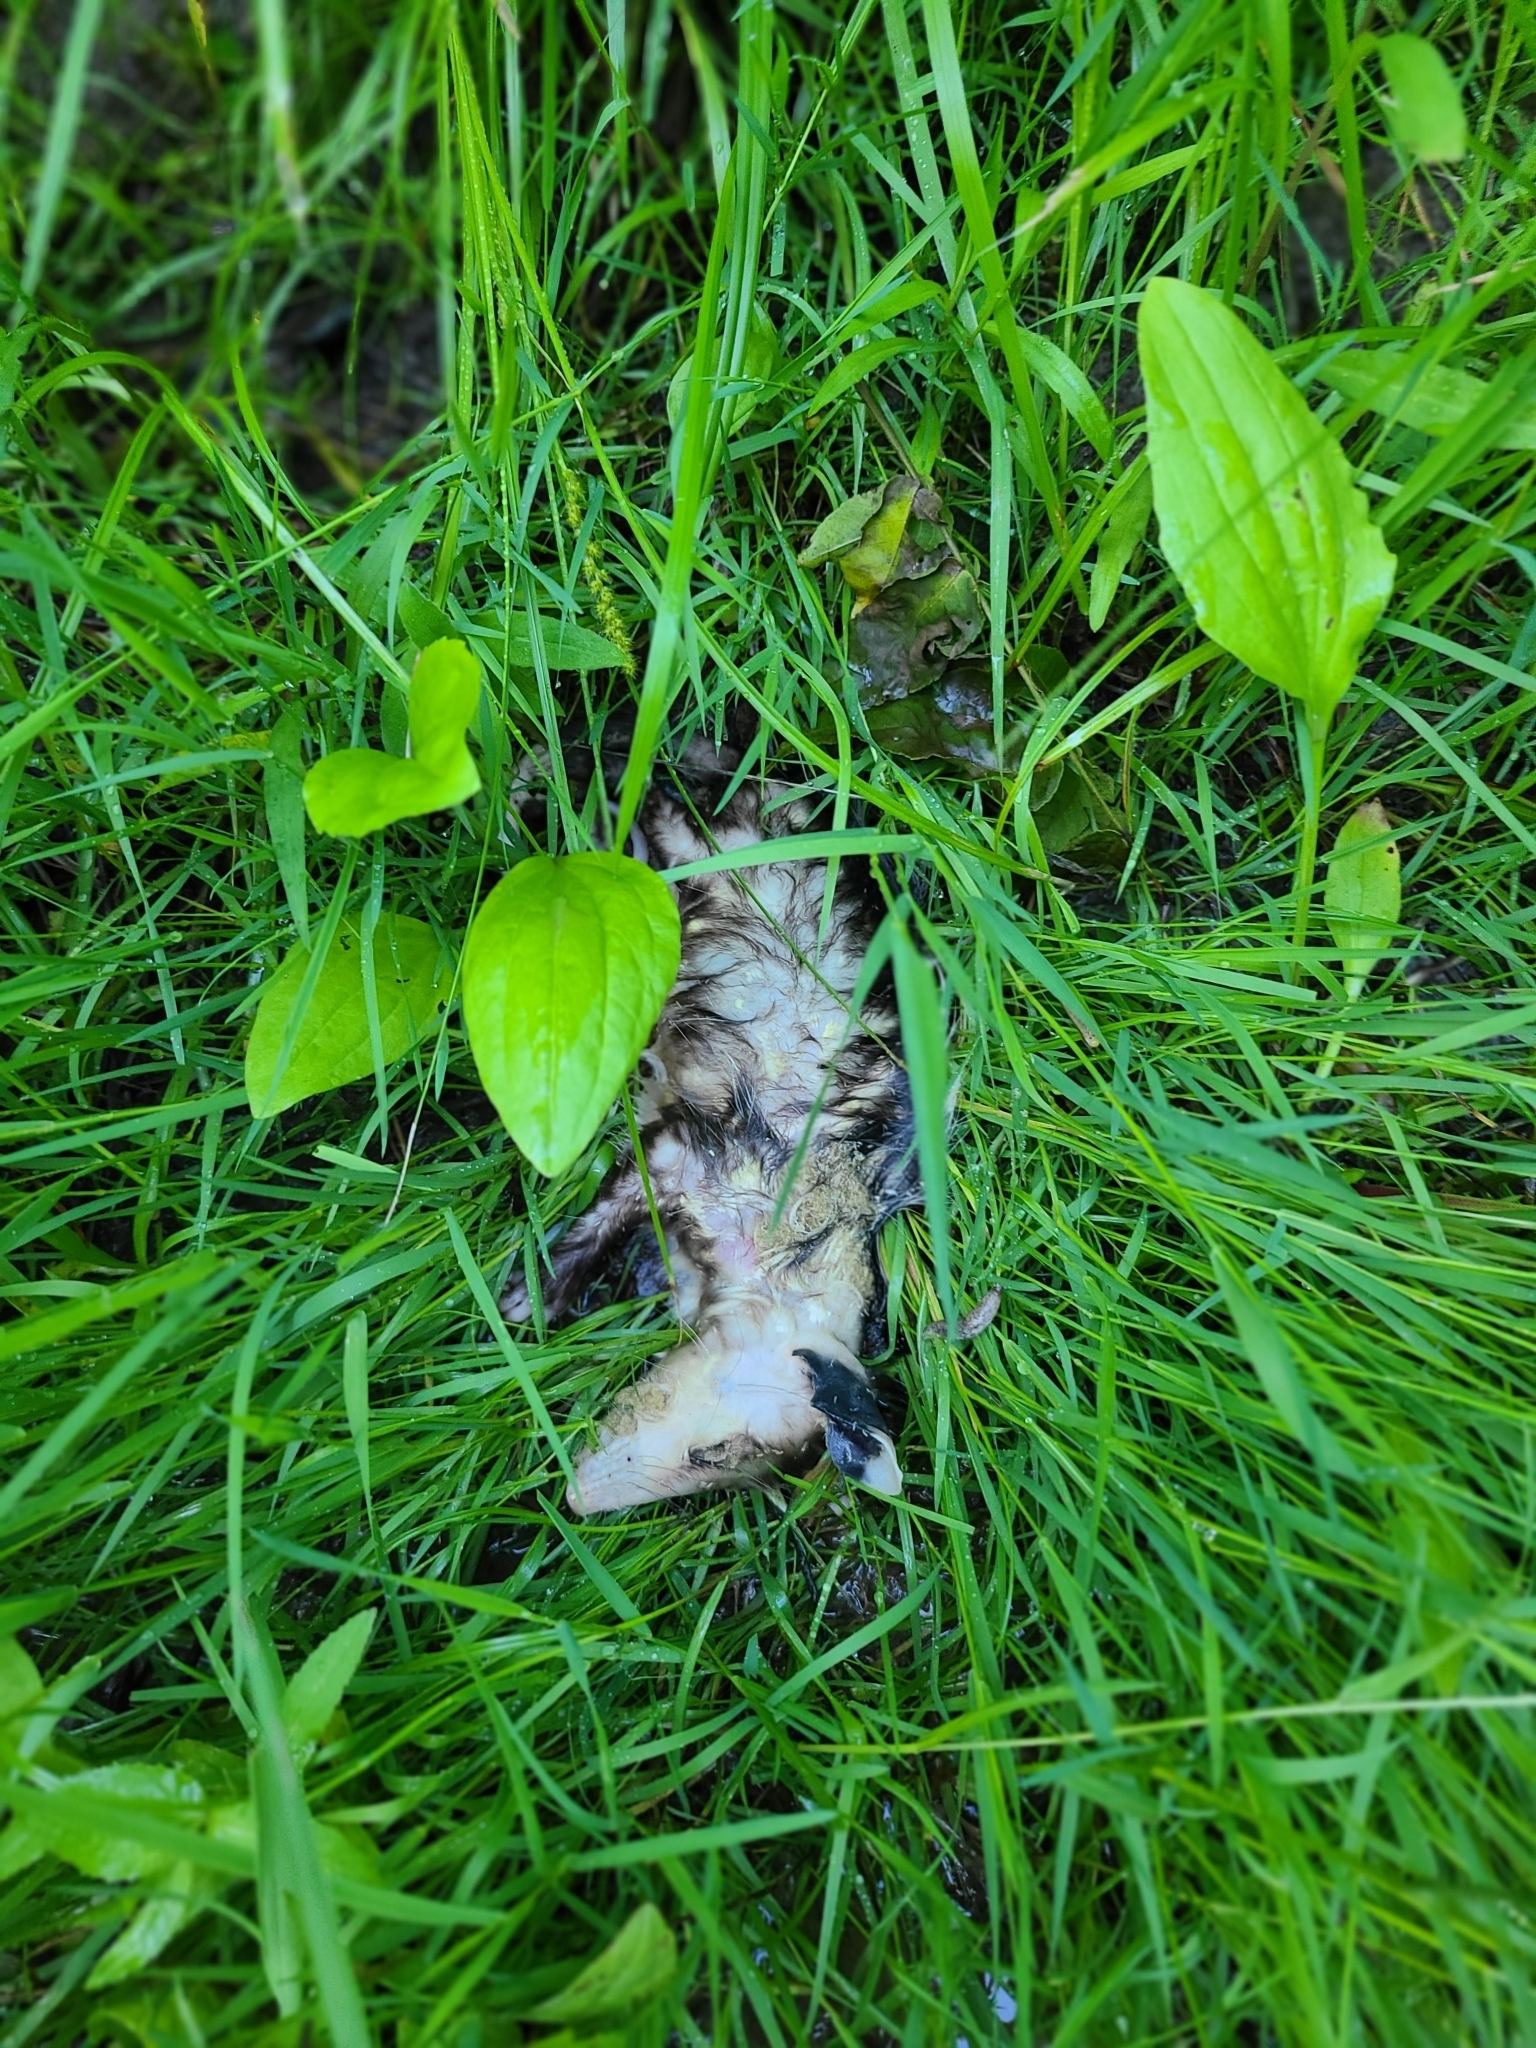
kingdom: Animalia
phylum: Chordata
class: Mammalia
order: Didelphimorphia
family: Didelphidae
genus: Didelphis
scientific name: Didelphis virginiana
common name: Virginia opossum
